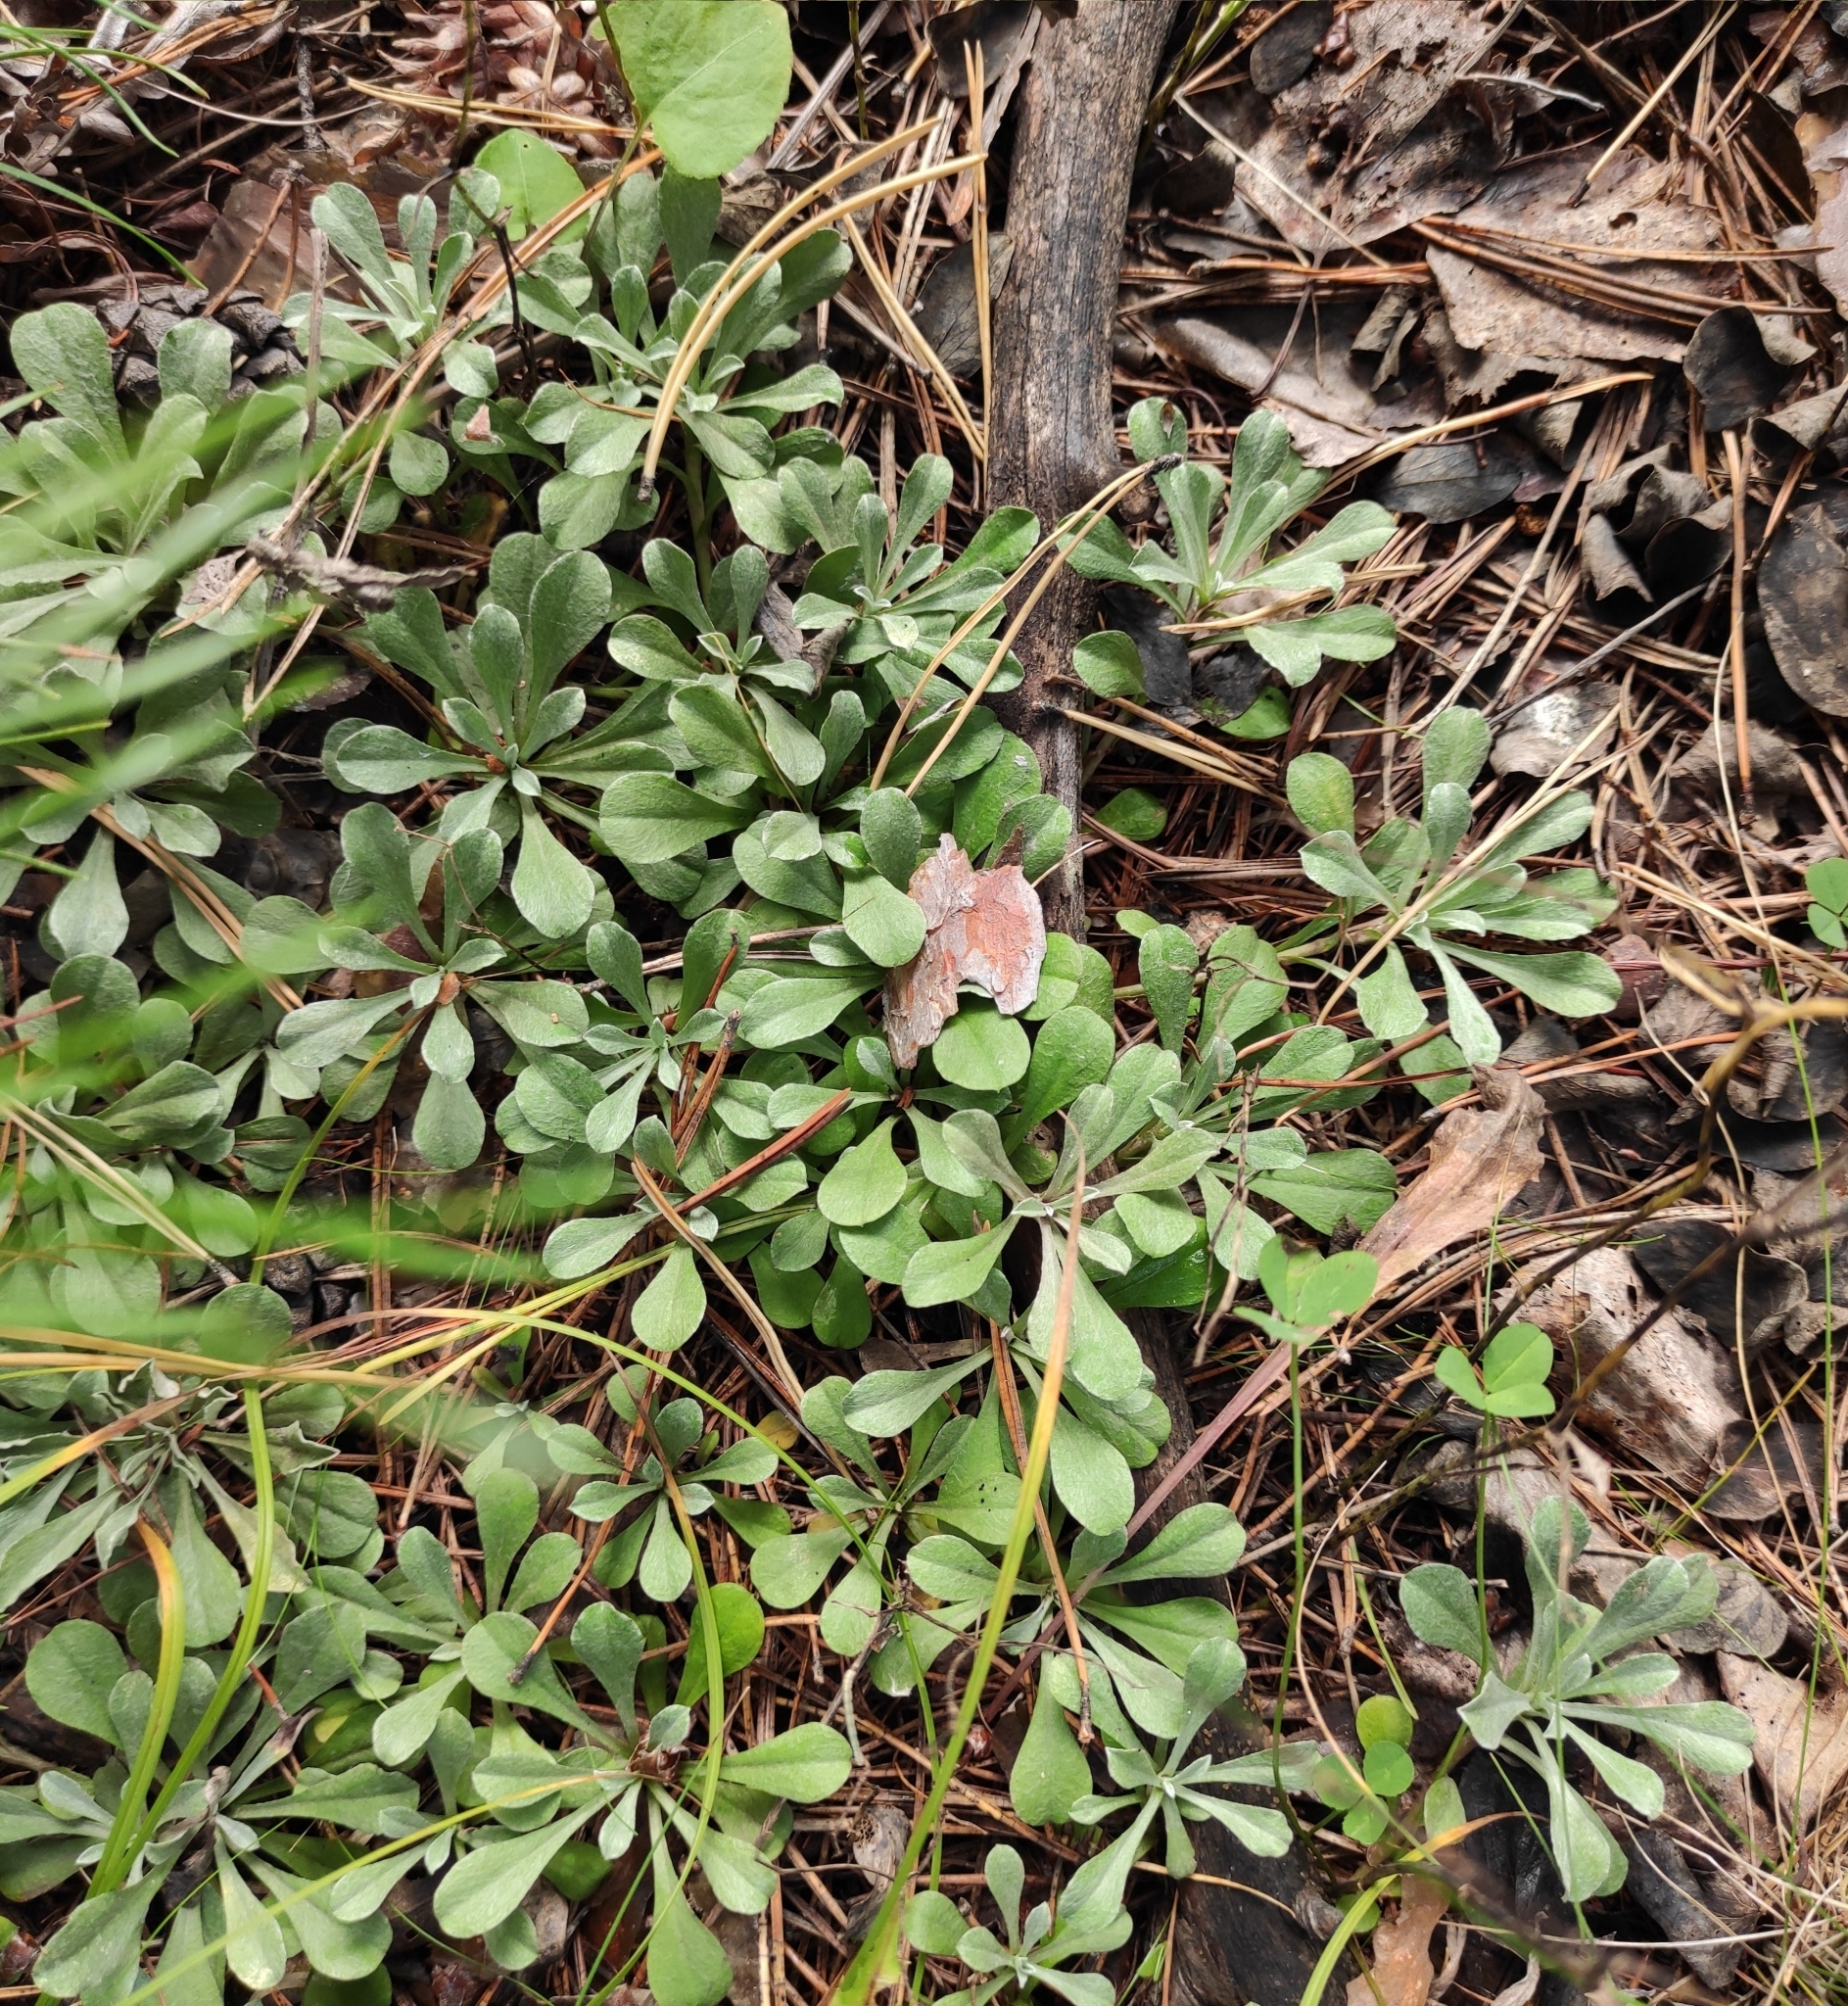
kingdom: Plantae
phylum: Tracheophyta
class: Magnoliopsida
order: Asterales
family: Asteraceae
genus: Antennaria
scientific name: Antennaria dioica
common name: Mountain everlasting
